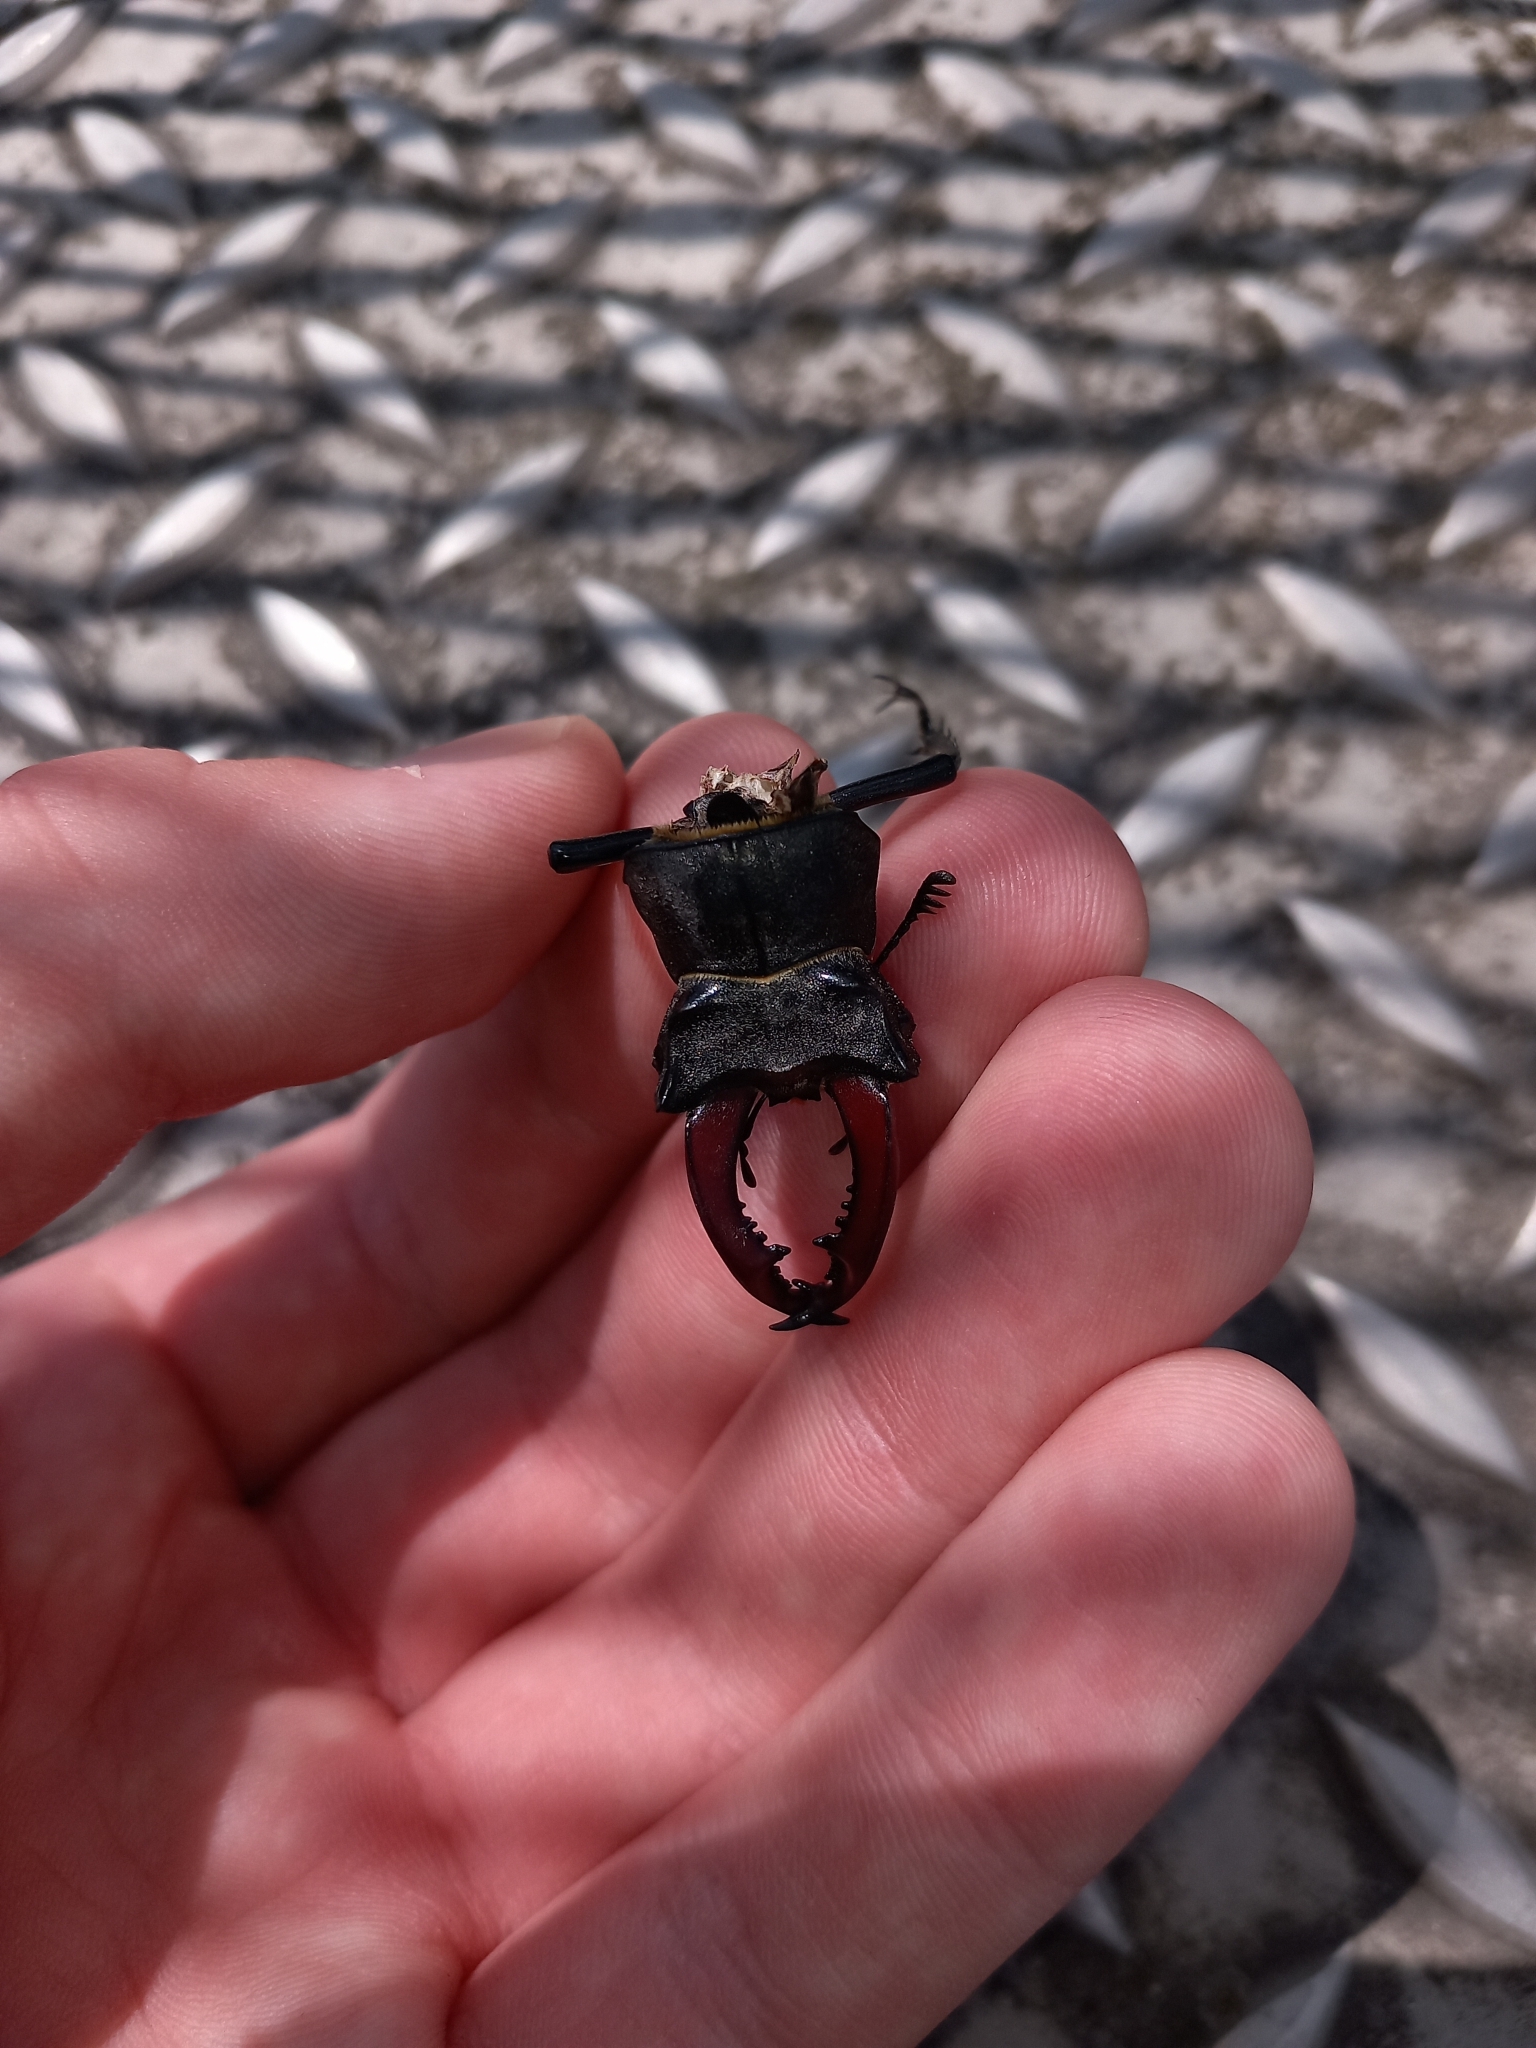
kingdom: Animalia
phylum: Arthropoda
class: Insecta
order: Coleoptera
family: Lucanidae
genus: Lucanus
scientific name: Lucanus cervus
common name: Stag beetle
